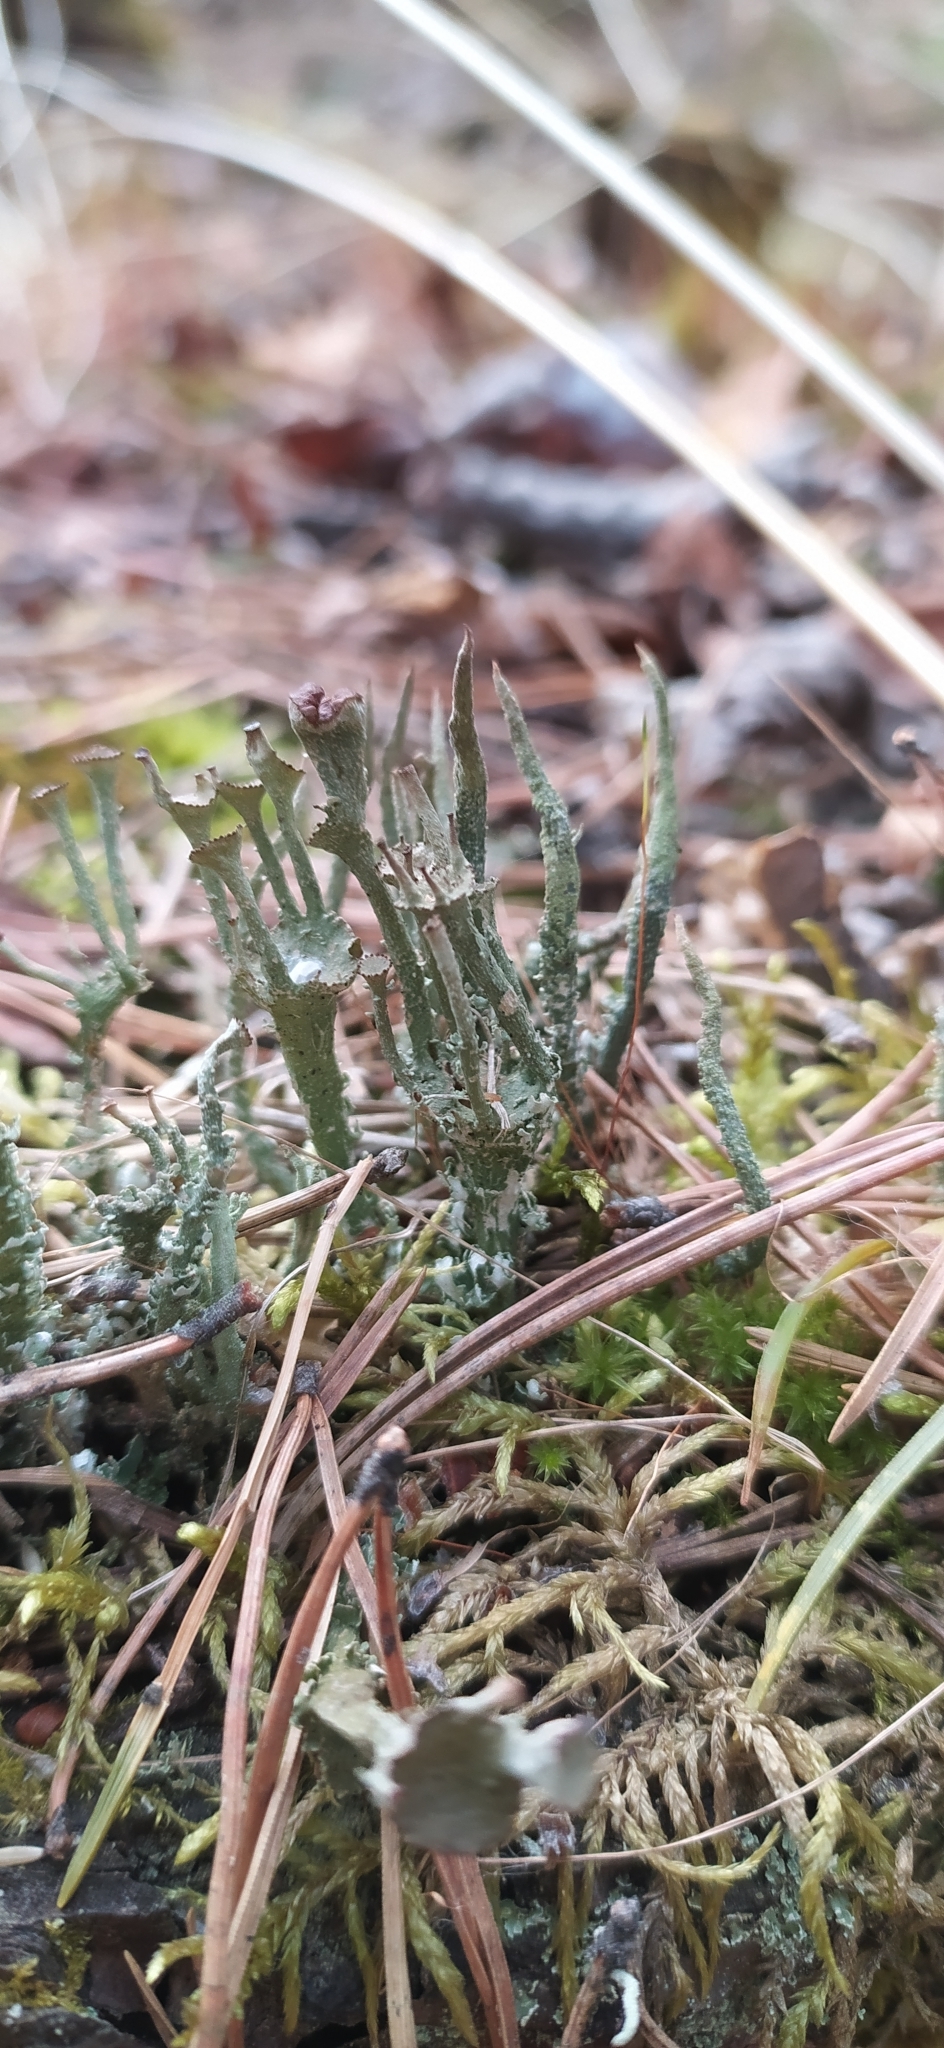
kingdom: Fungi
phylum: Ascomycota
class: Lecanoromycetes
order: Lecanorales
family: Cladoniaceae
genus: Cladonia
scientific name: Cladonia gracilis
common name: Smooth clad lichen
